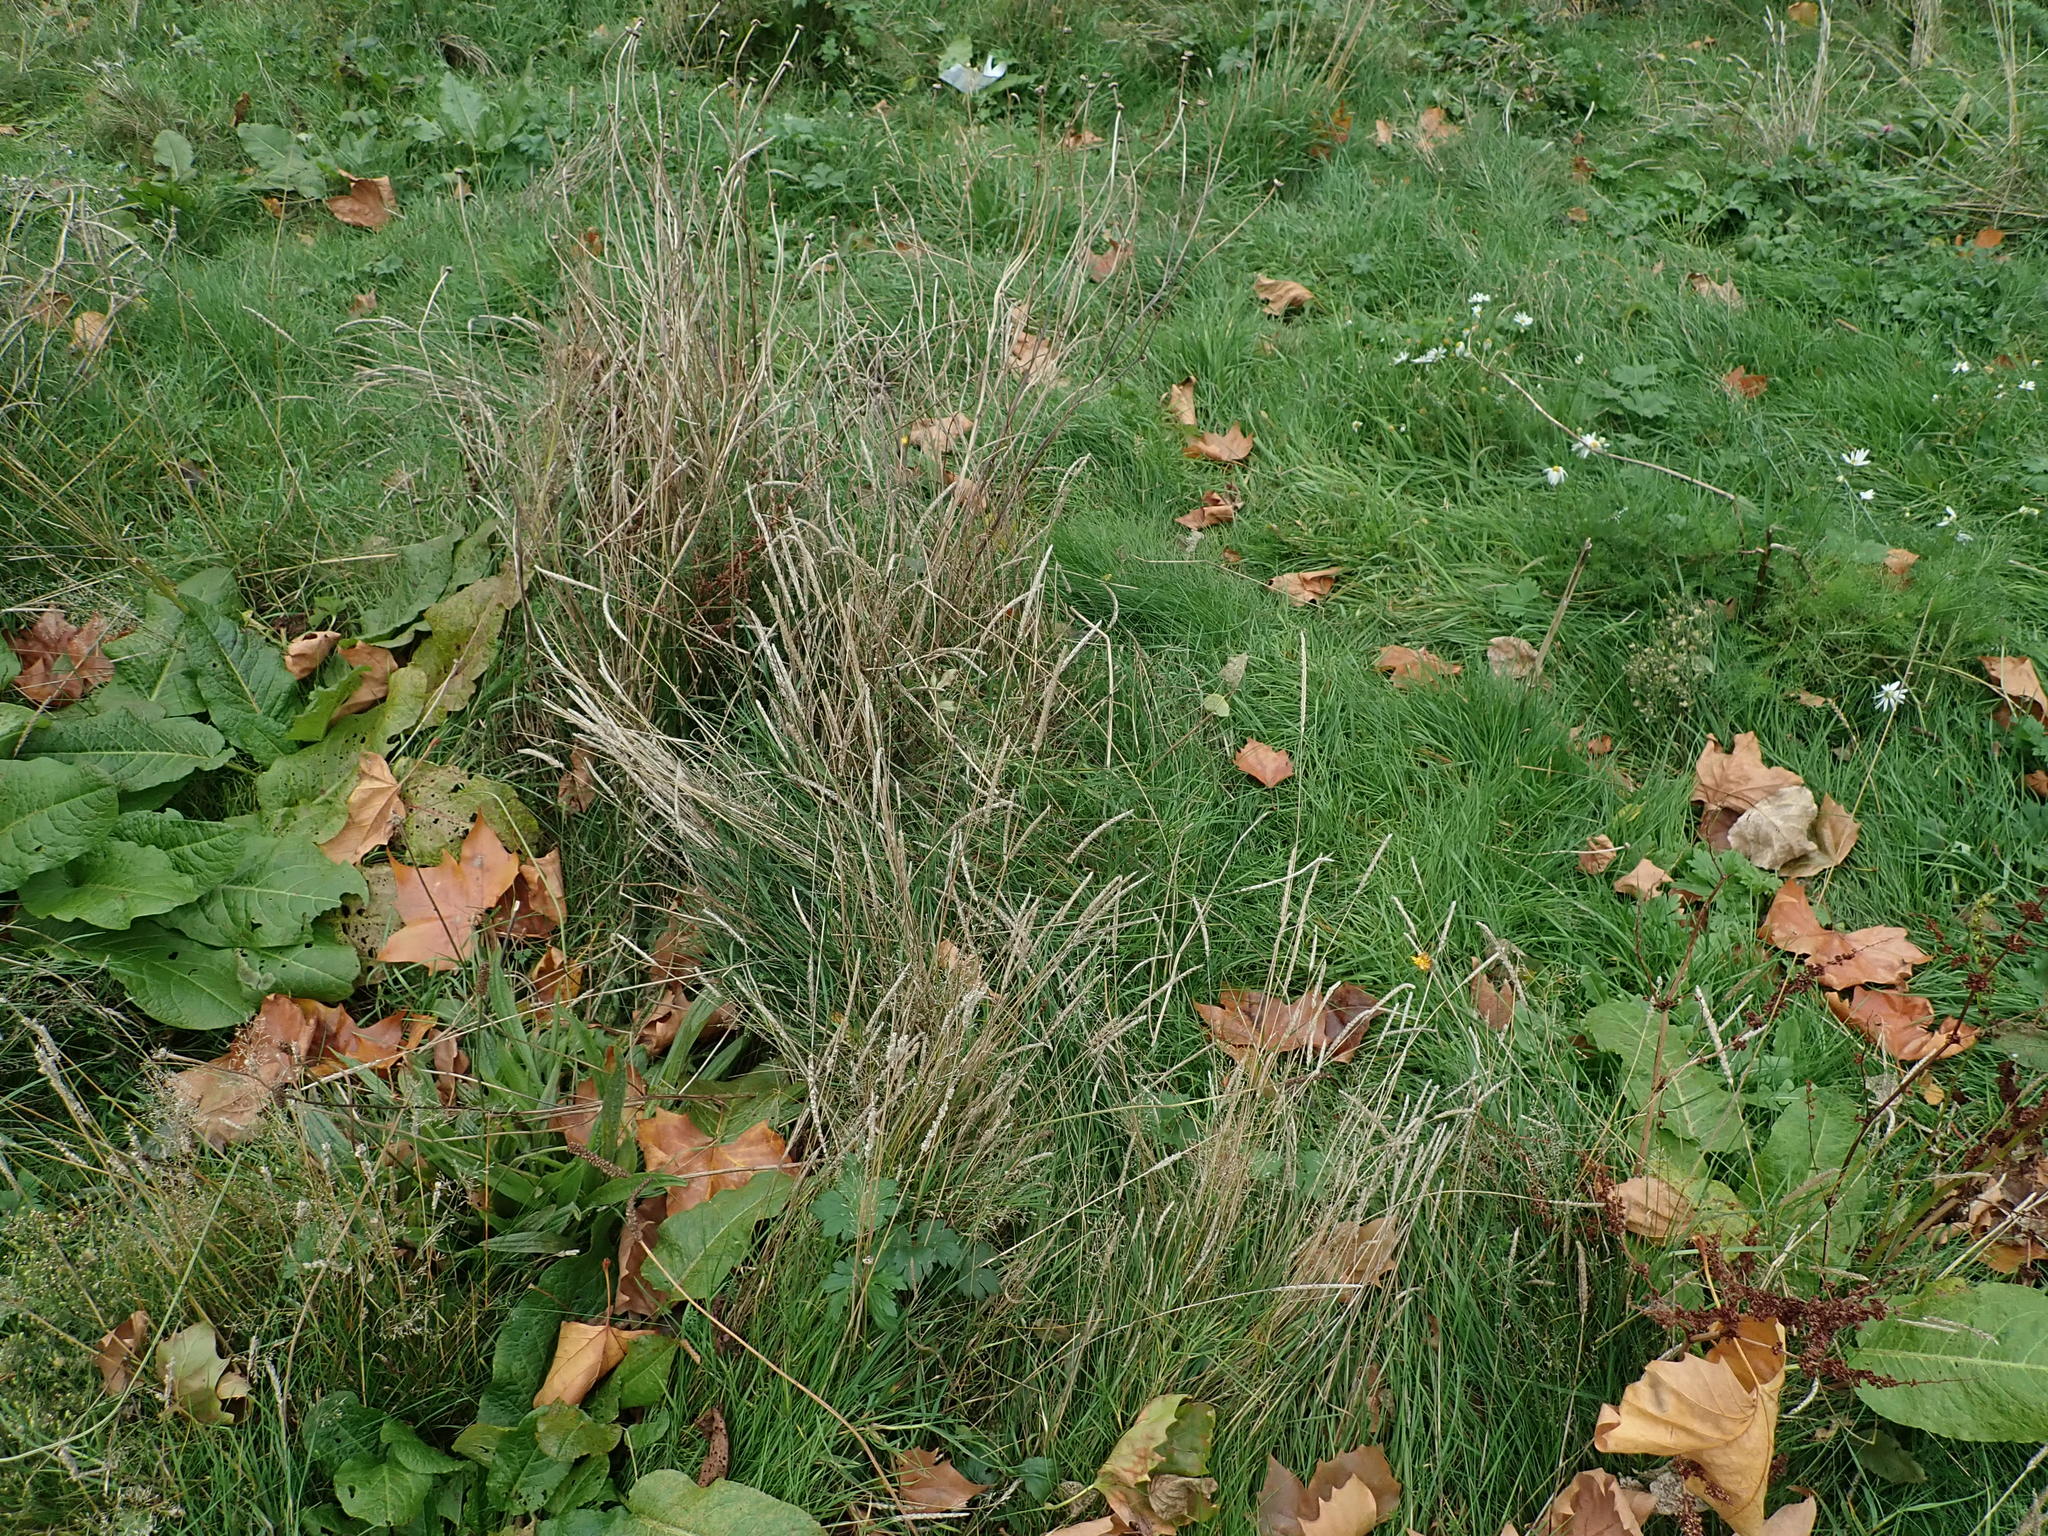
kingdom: Plantae
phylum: Tracheophyta
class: Liliopsida
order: Poales
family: Poaceae
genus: Cynosurus
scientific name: Cynosurus cristatus
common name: Crested dog's-tail
